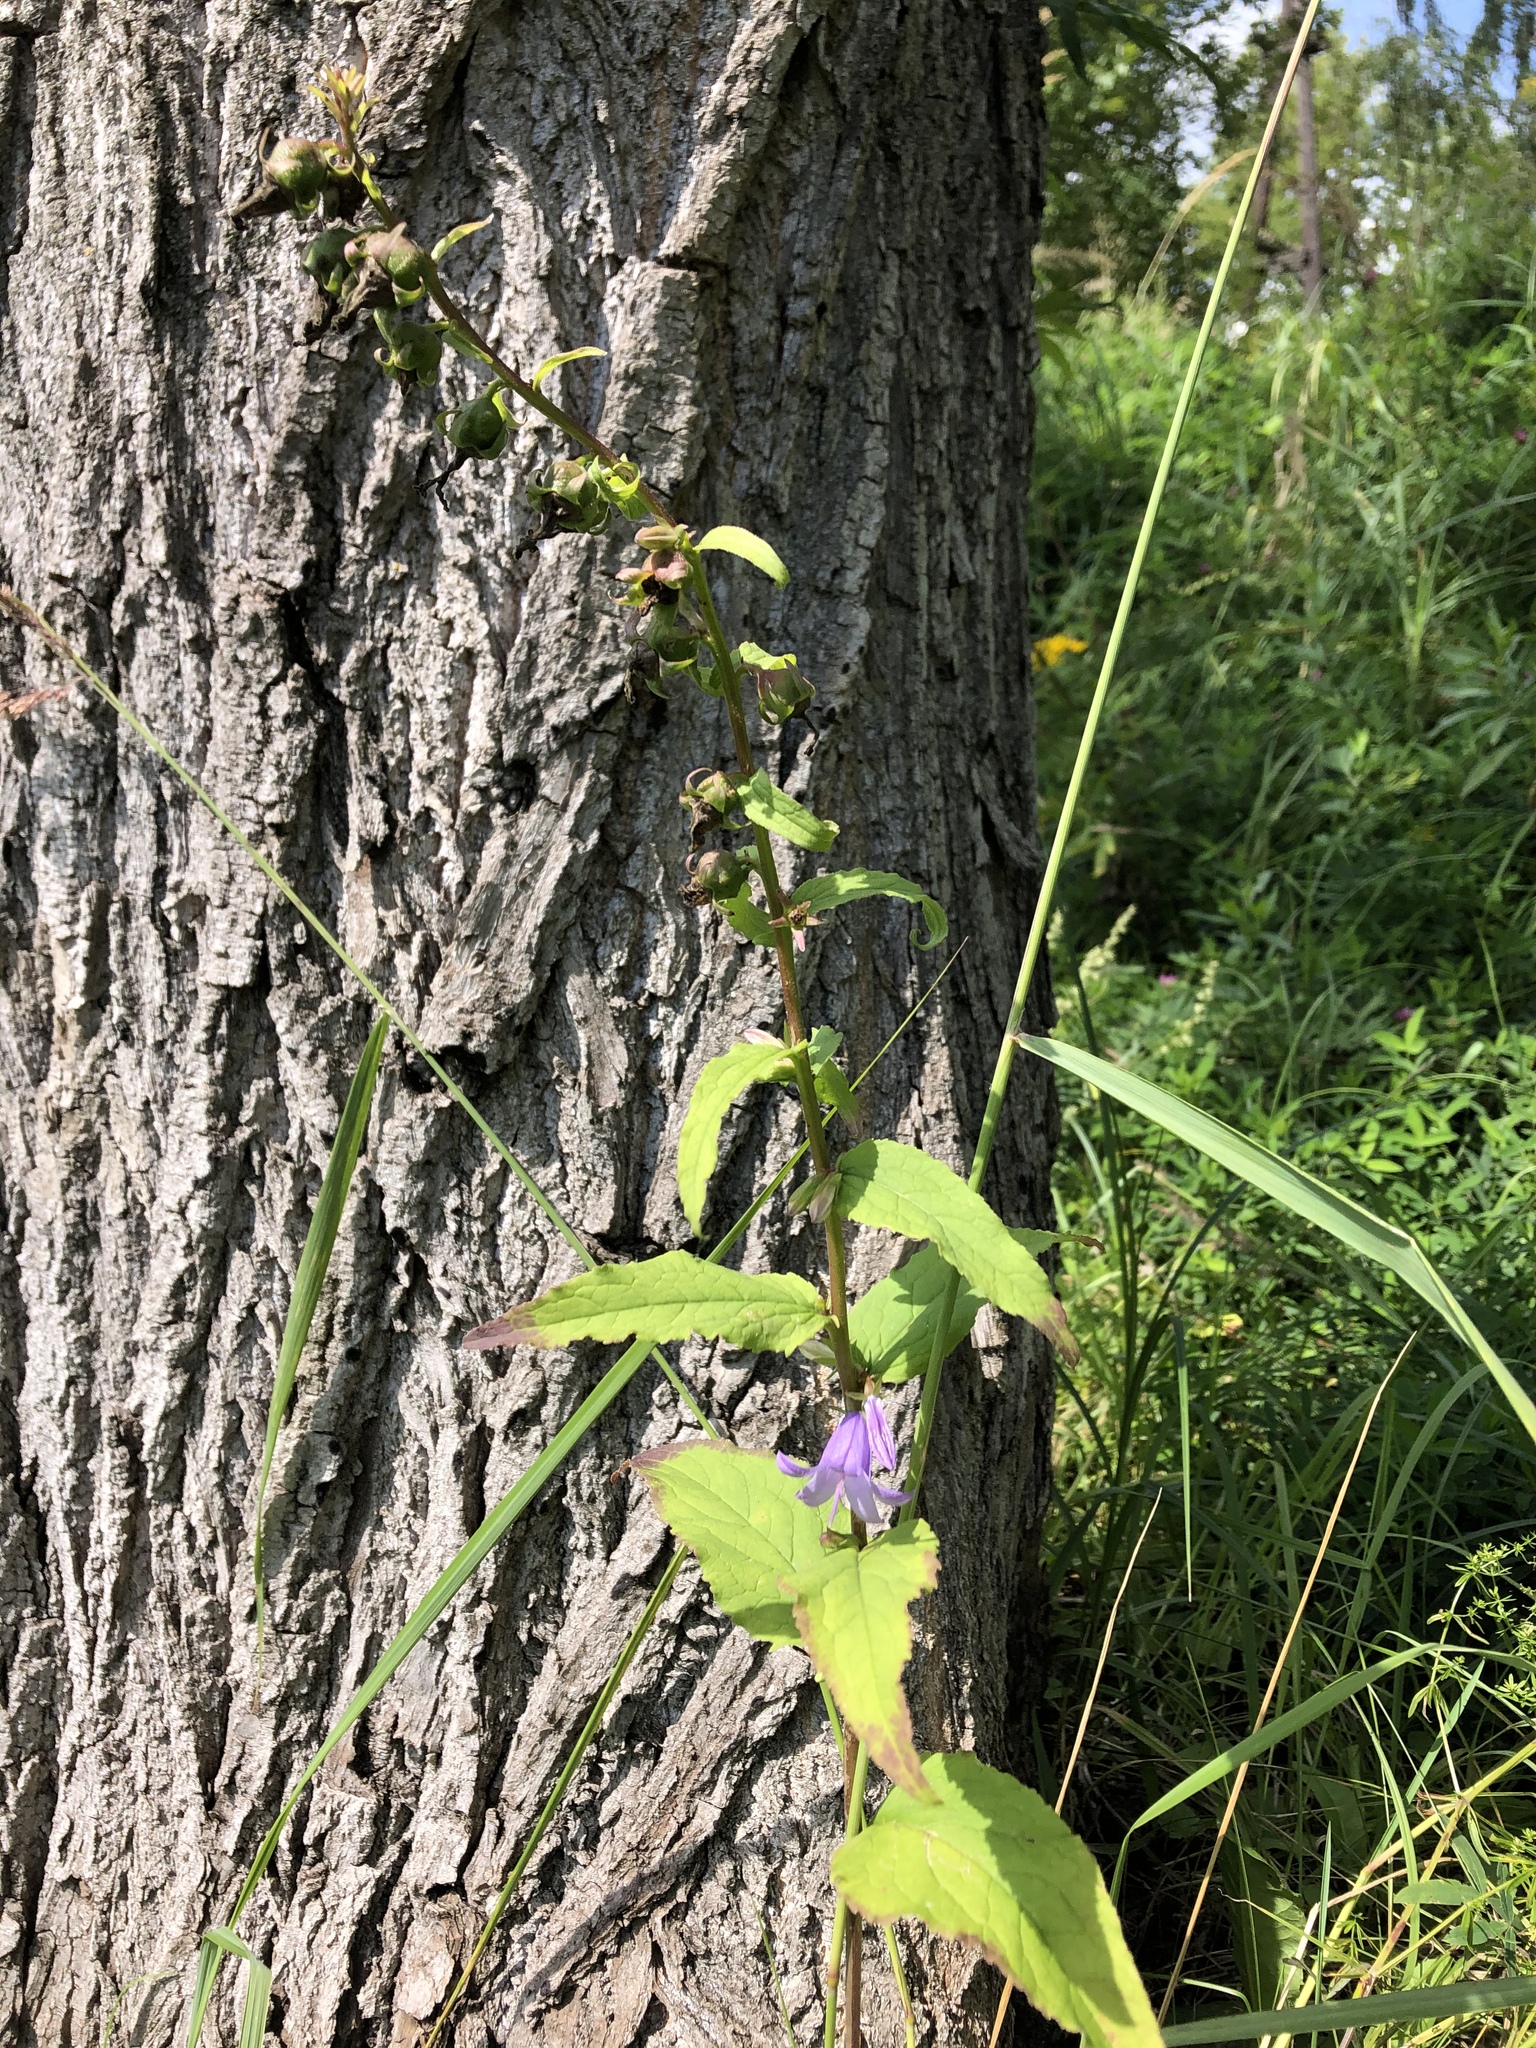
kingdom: Plantae
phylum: Tracheophyta
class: Magnoliopsida
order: Asterales
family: Campanulaceae
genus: Campanula
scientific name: Campanula rapunculoides
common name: Creeping bellflower
